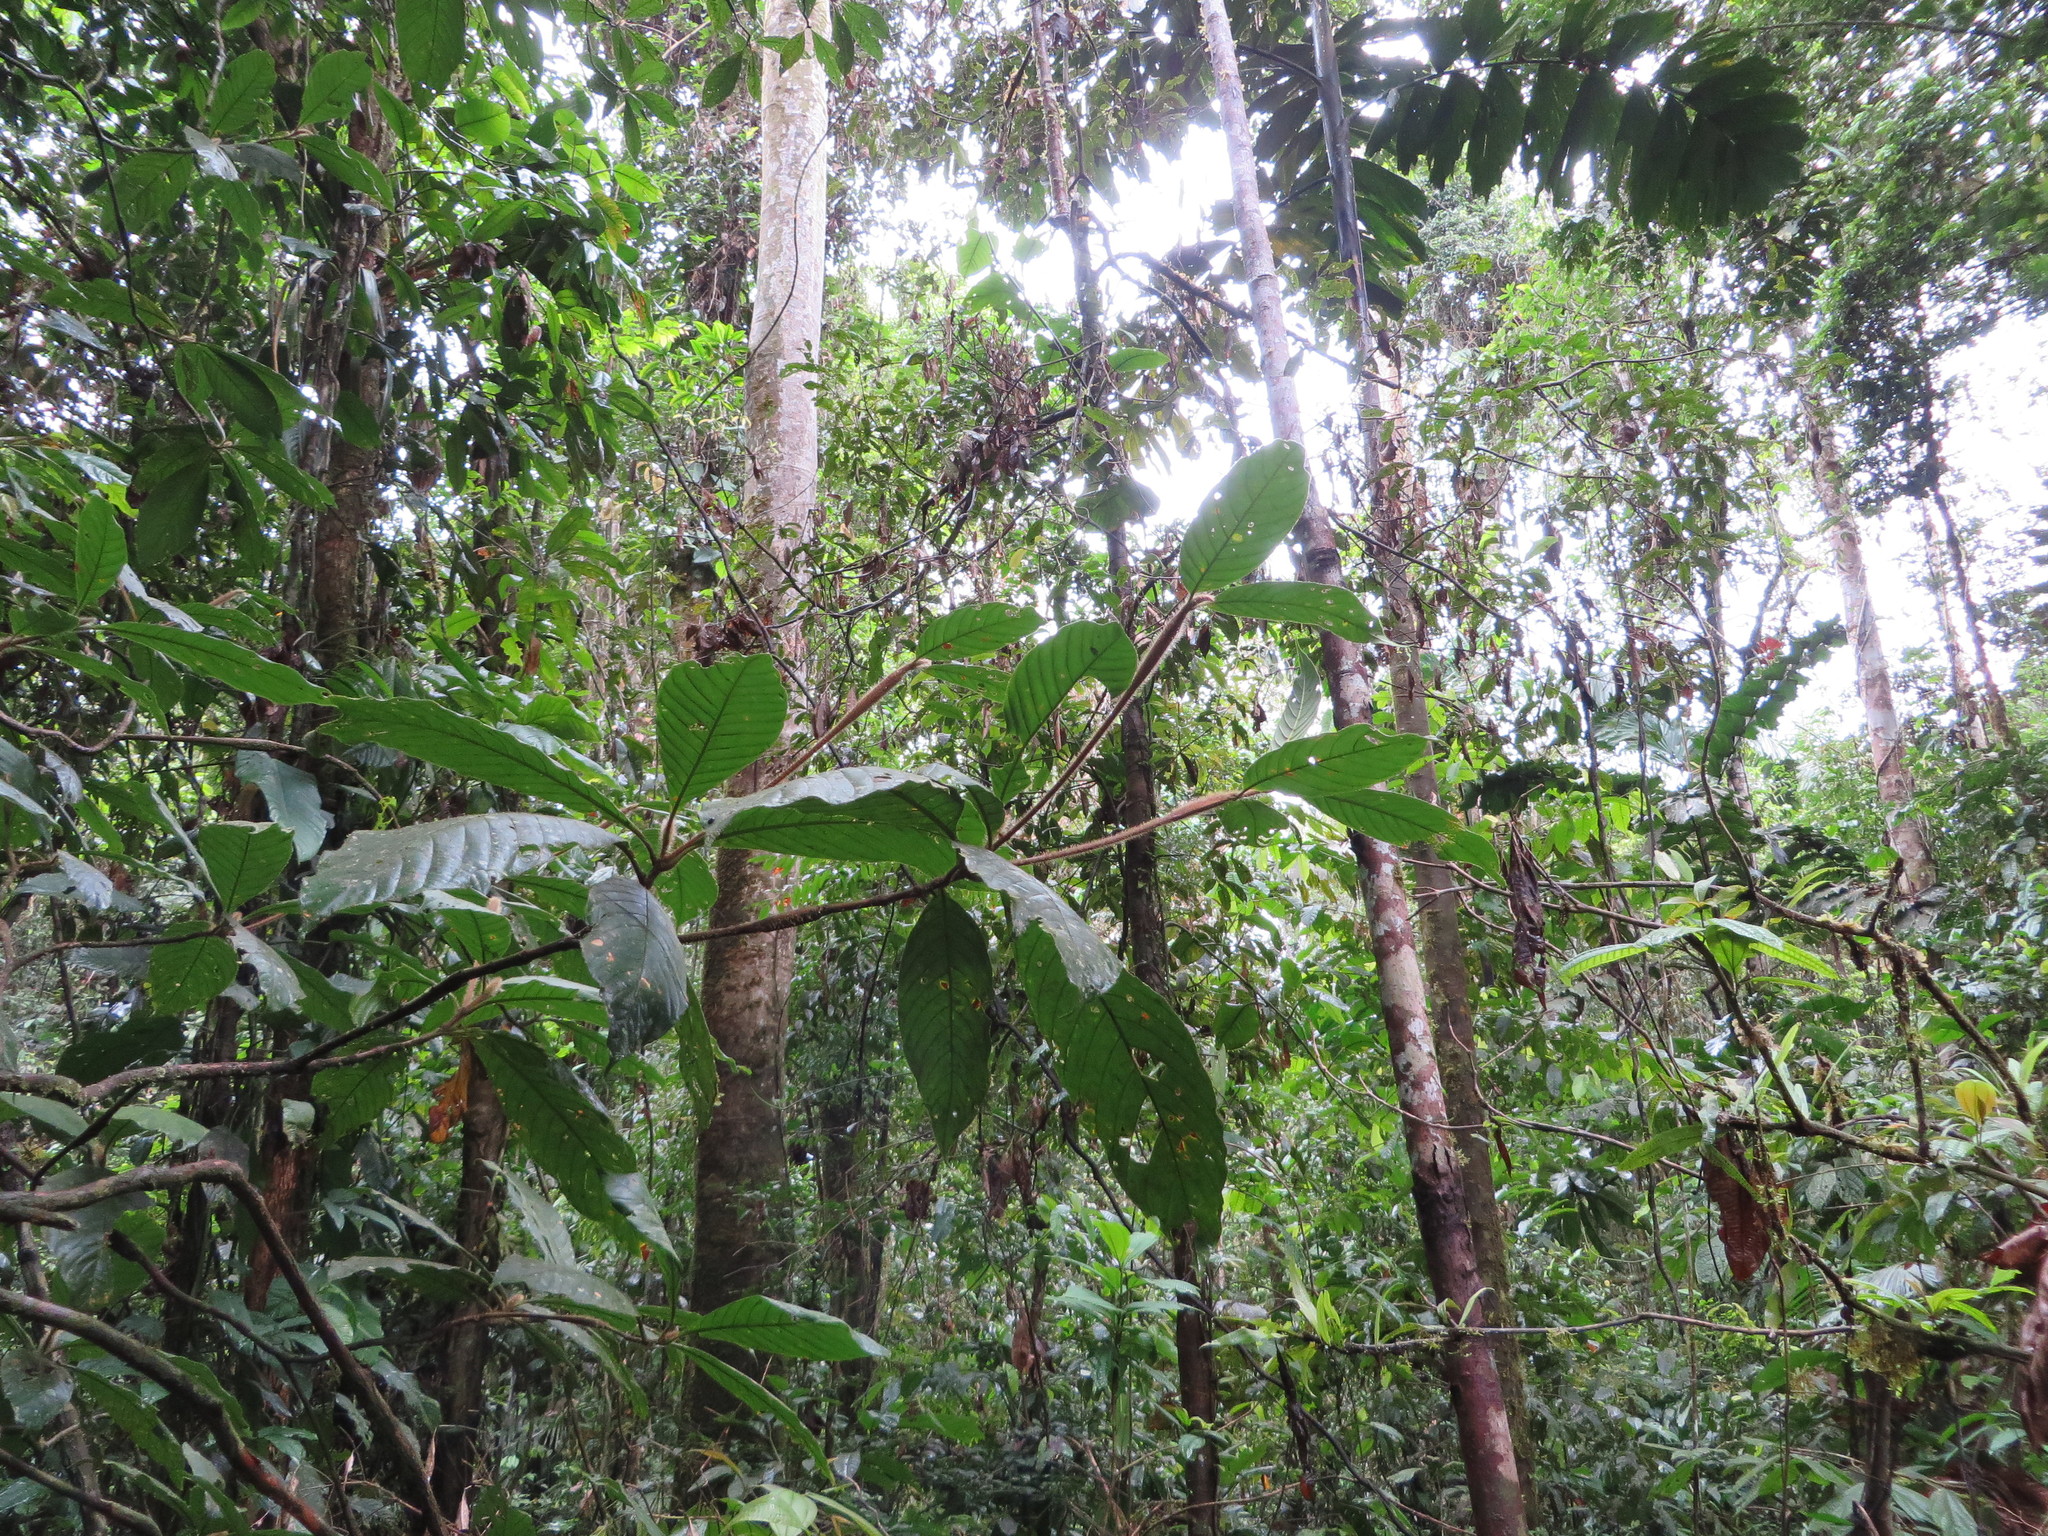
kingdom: Plantae
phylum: Tracheophyta
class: Magnoliopsida
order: Gentianales
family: Rubiaceae
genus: Duroia
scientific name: Duroia hirsuta
